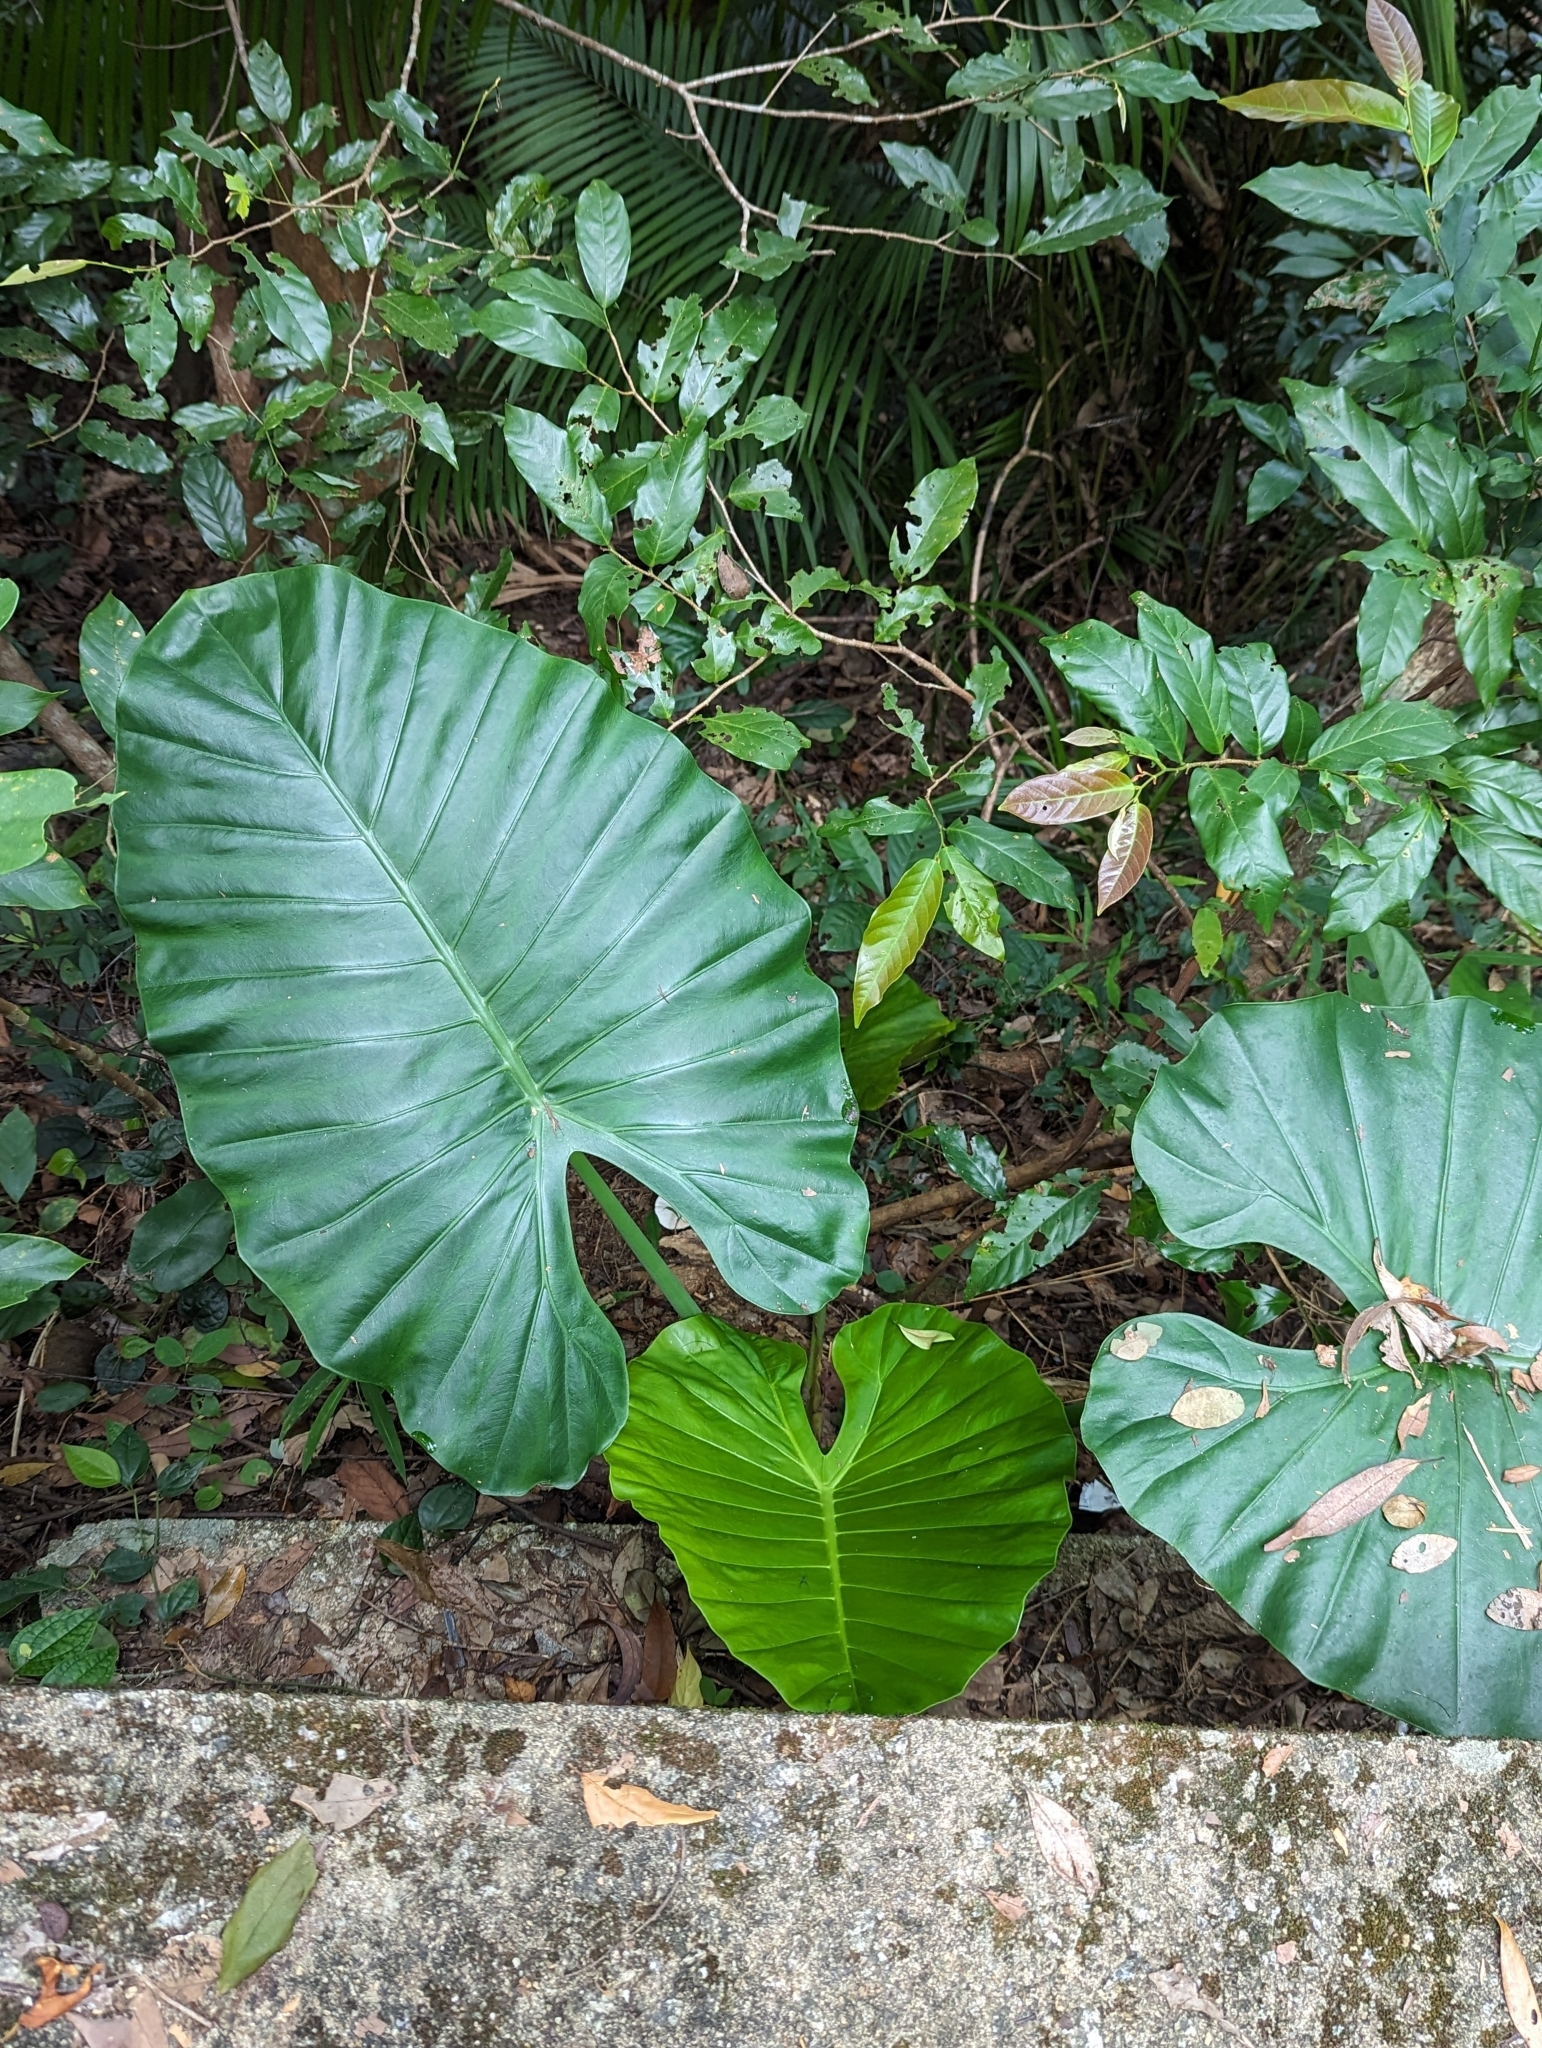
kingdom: Plantae
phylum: Tracheophyta
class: Liliopsida
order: Alismatales
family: Araceae
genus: Alocasia
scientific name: Alocasia odora
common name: Asian taro
